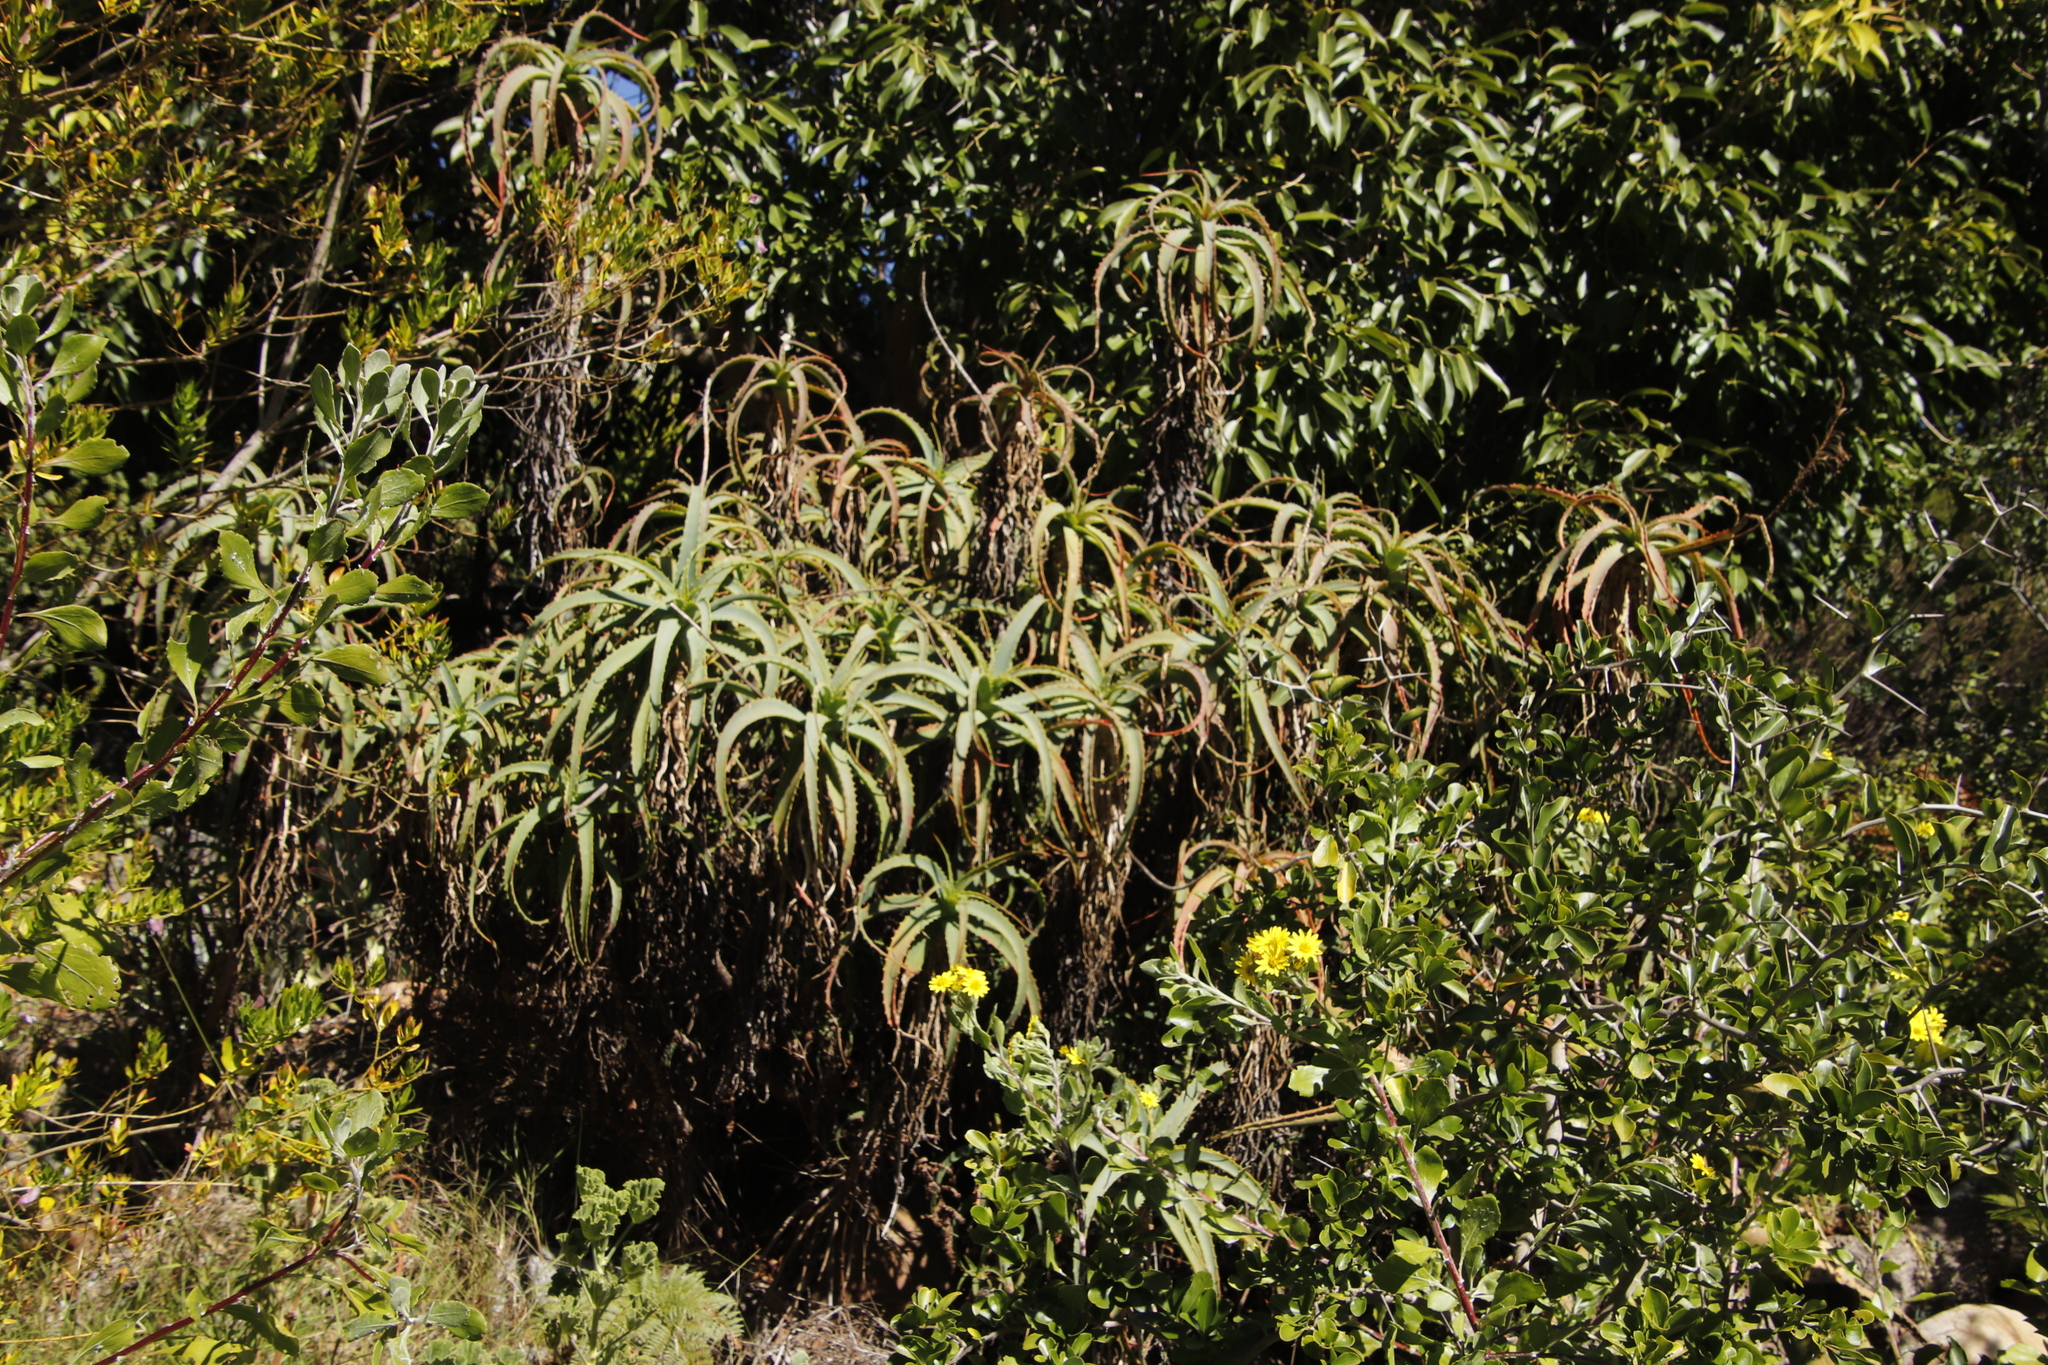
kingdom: Plantae
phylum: Tracheophyta
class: Liliopsida
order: Asparagales
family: Asphodelaceae
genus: Aloe
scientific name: Aloe arborescens
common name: Candelabra aloe
